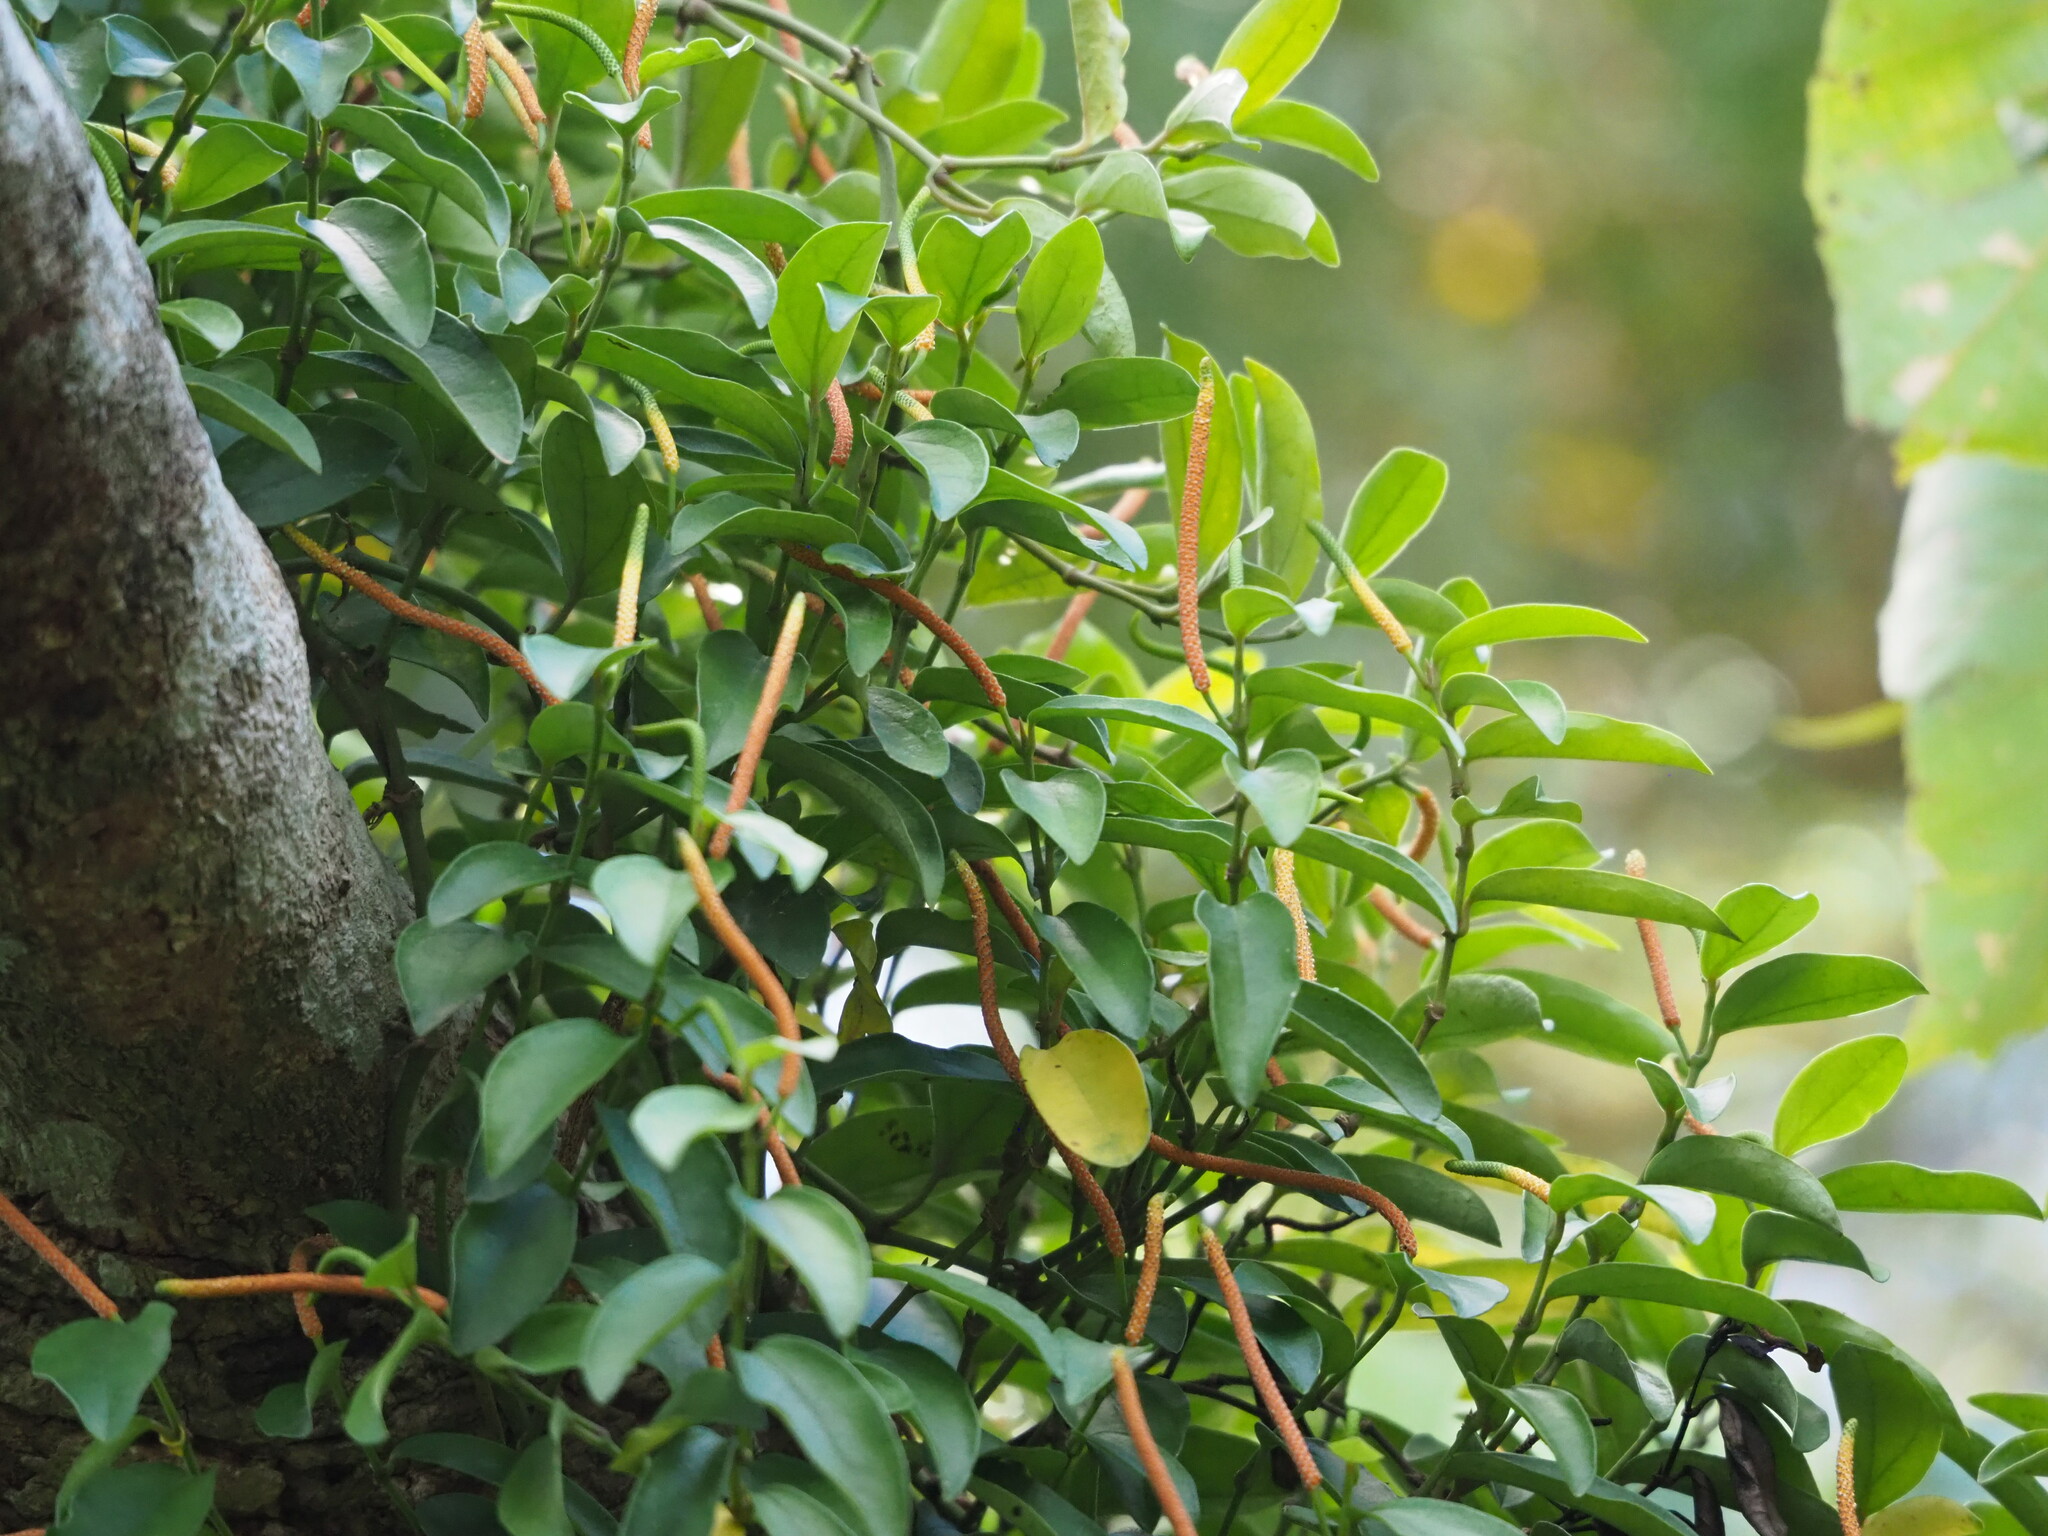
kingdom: Plantae
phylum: Tracheophyta
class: Magnoliopsida
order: Piperales
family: Piperaceae
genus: Piper
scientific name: Piper kadsura
